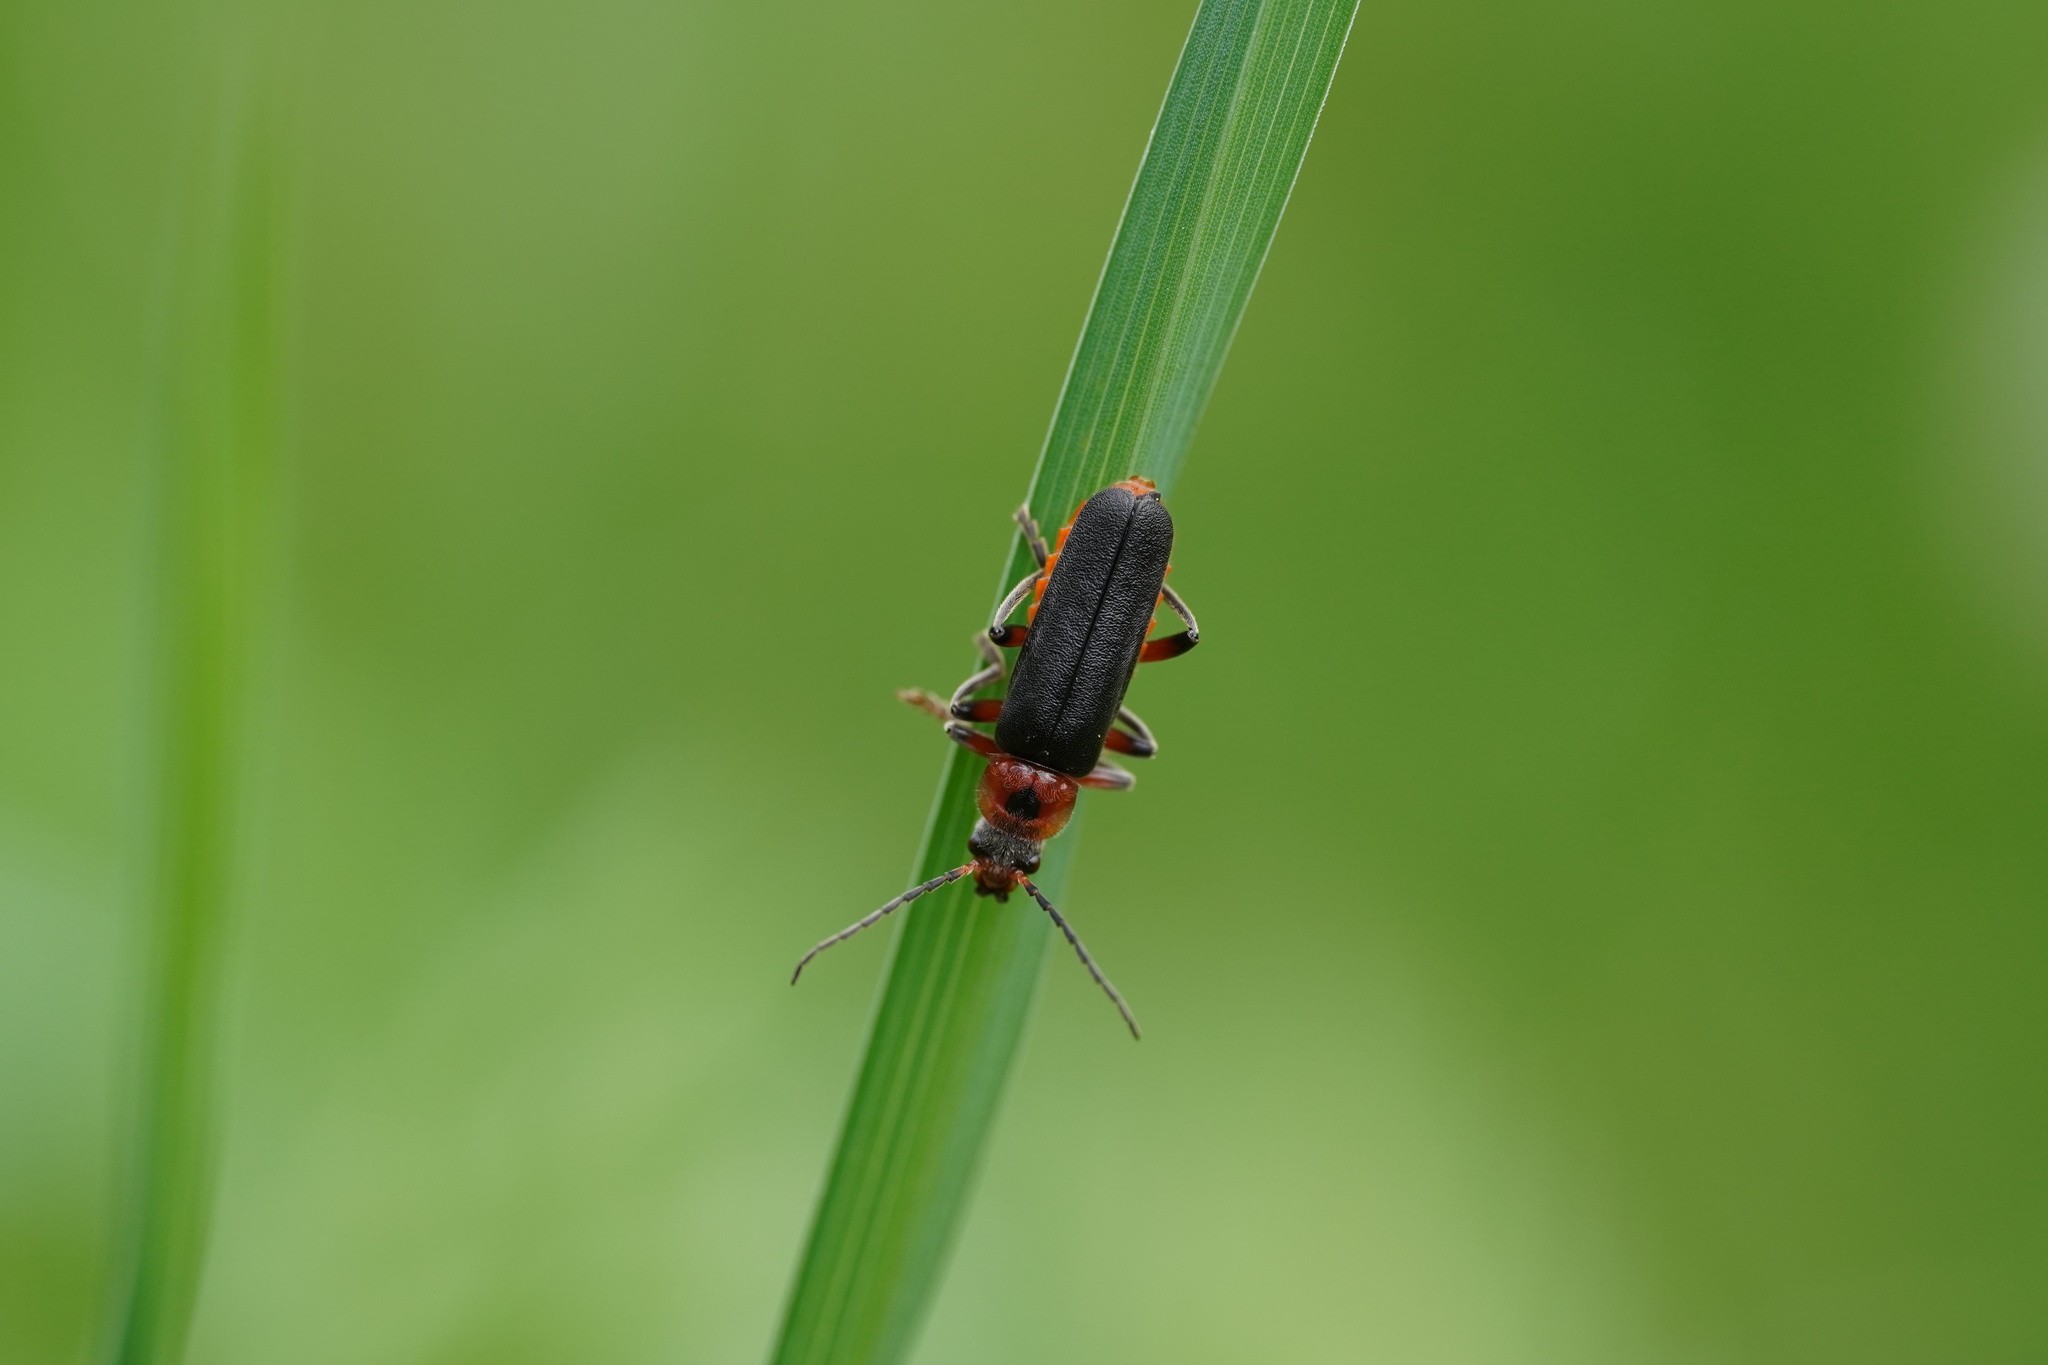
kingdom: Animalia
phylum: Arthropoda
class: Insecta
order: Coleoptera
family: Cantharidae
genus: Cantharis
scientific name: Cantharis rustica
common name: Soldier beetle
